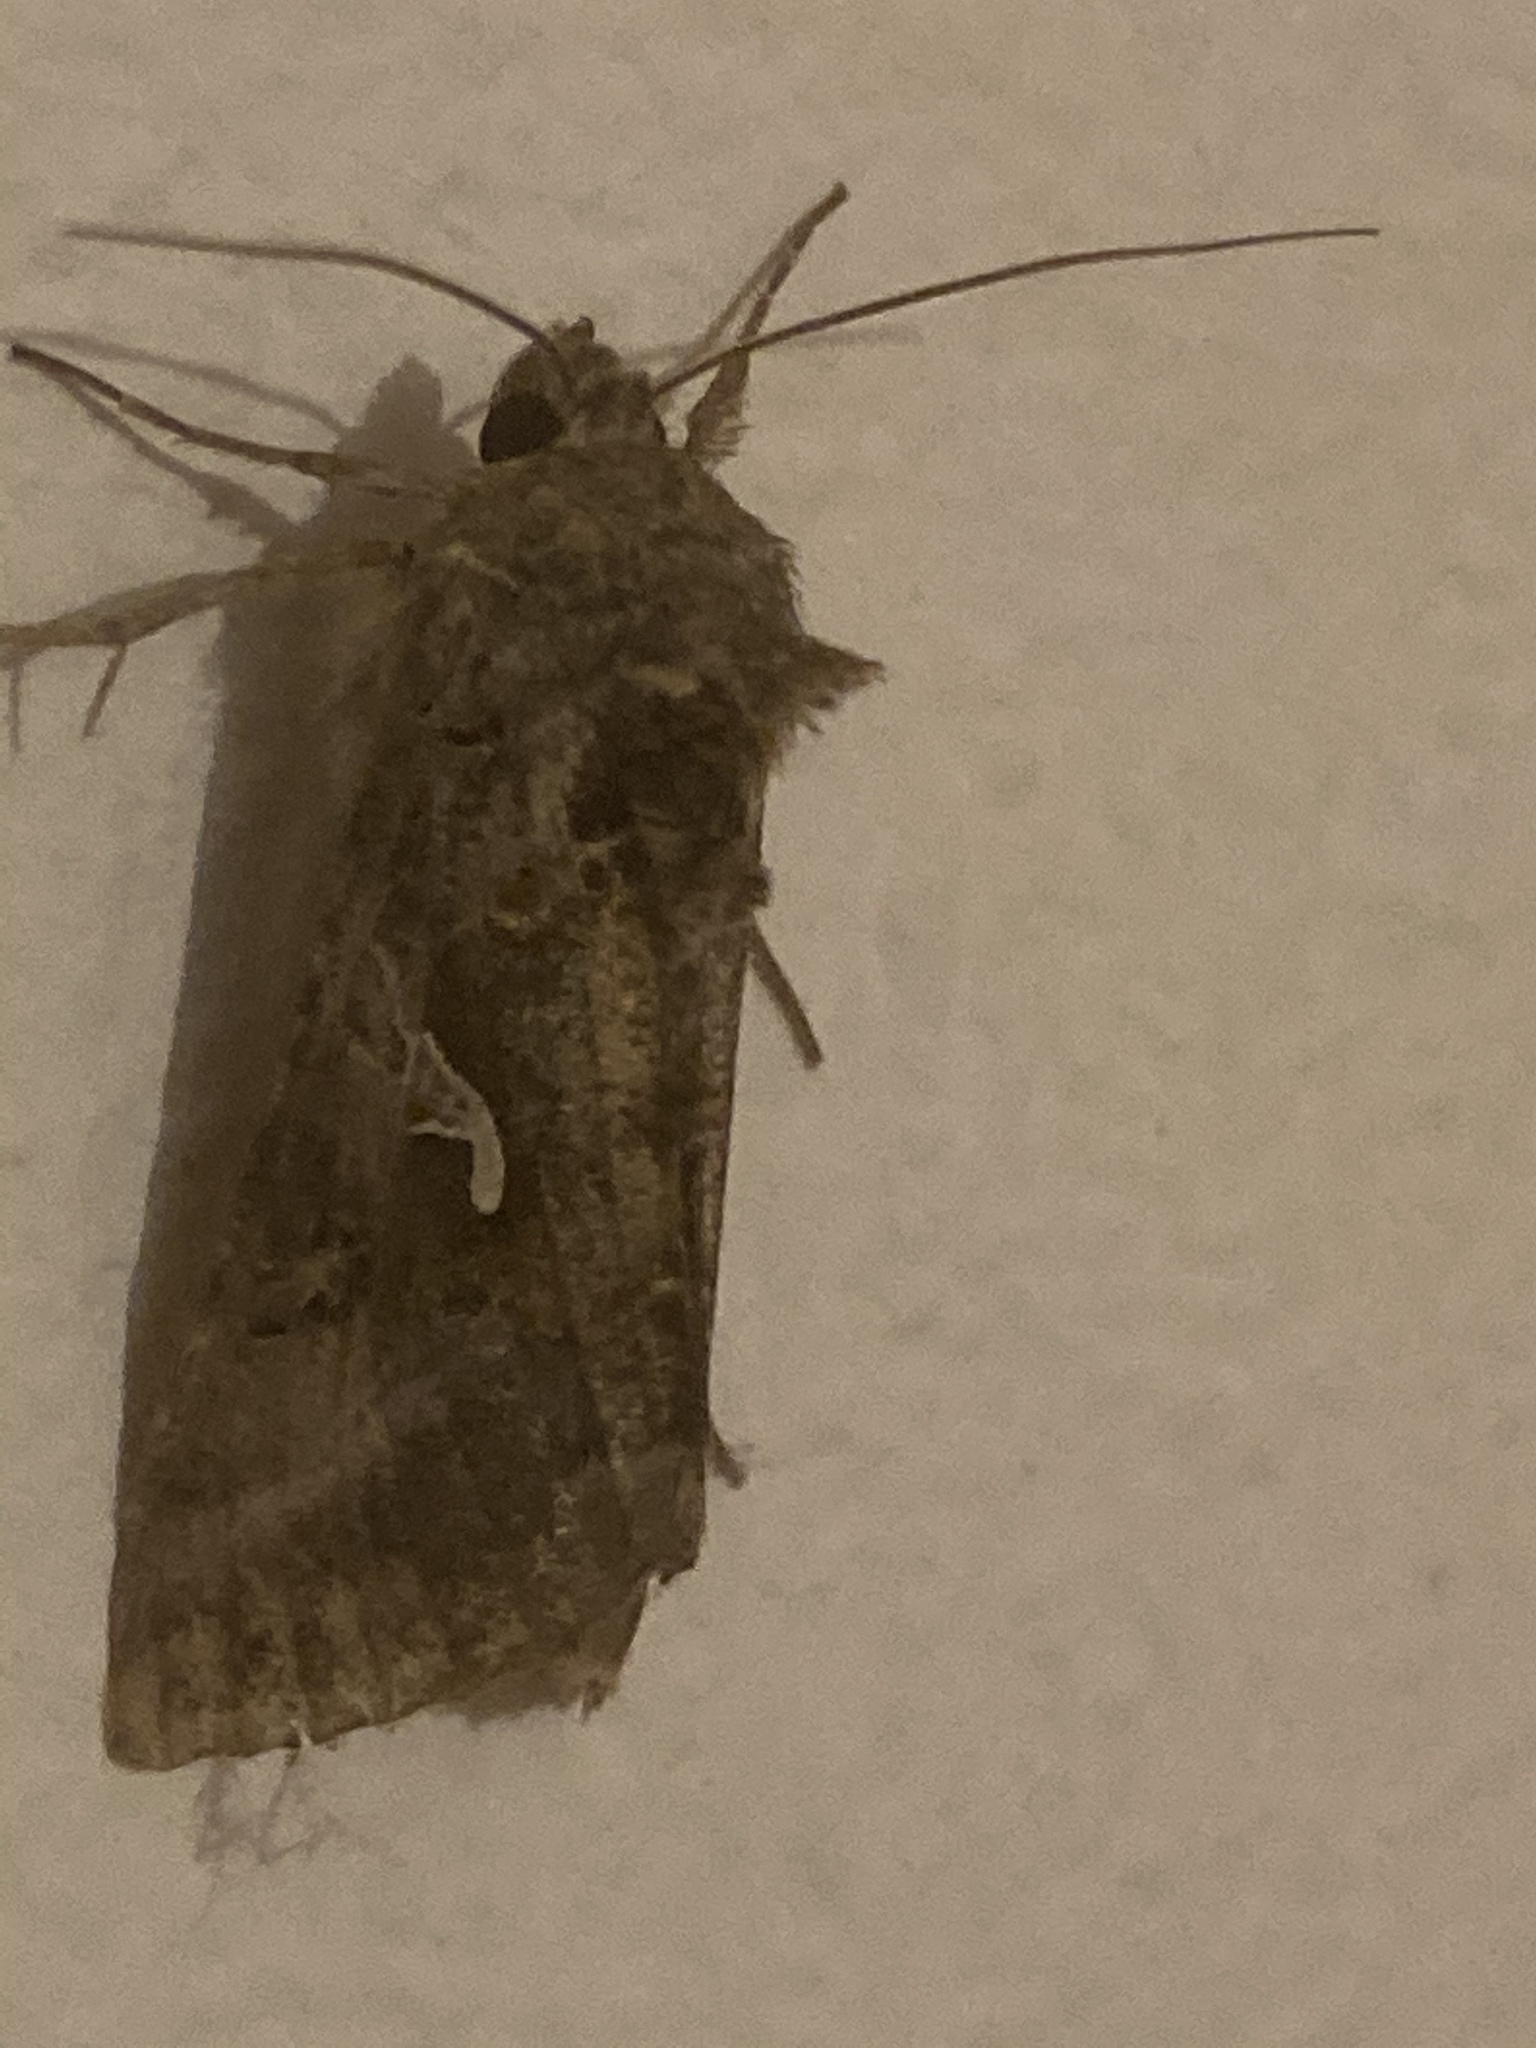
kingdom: Animalia
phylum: Arthropoda
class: Insecta
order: Lepidoptera
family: Noctuidae
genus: Autographa
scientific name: Autographa gamma
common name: Silver y
